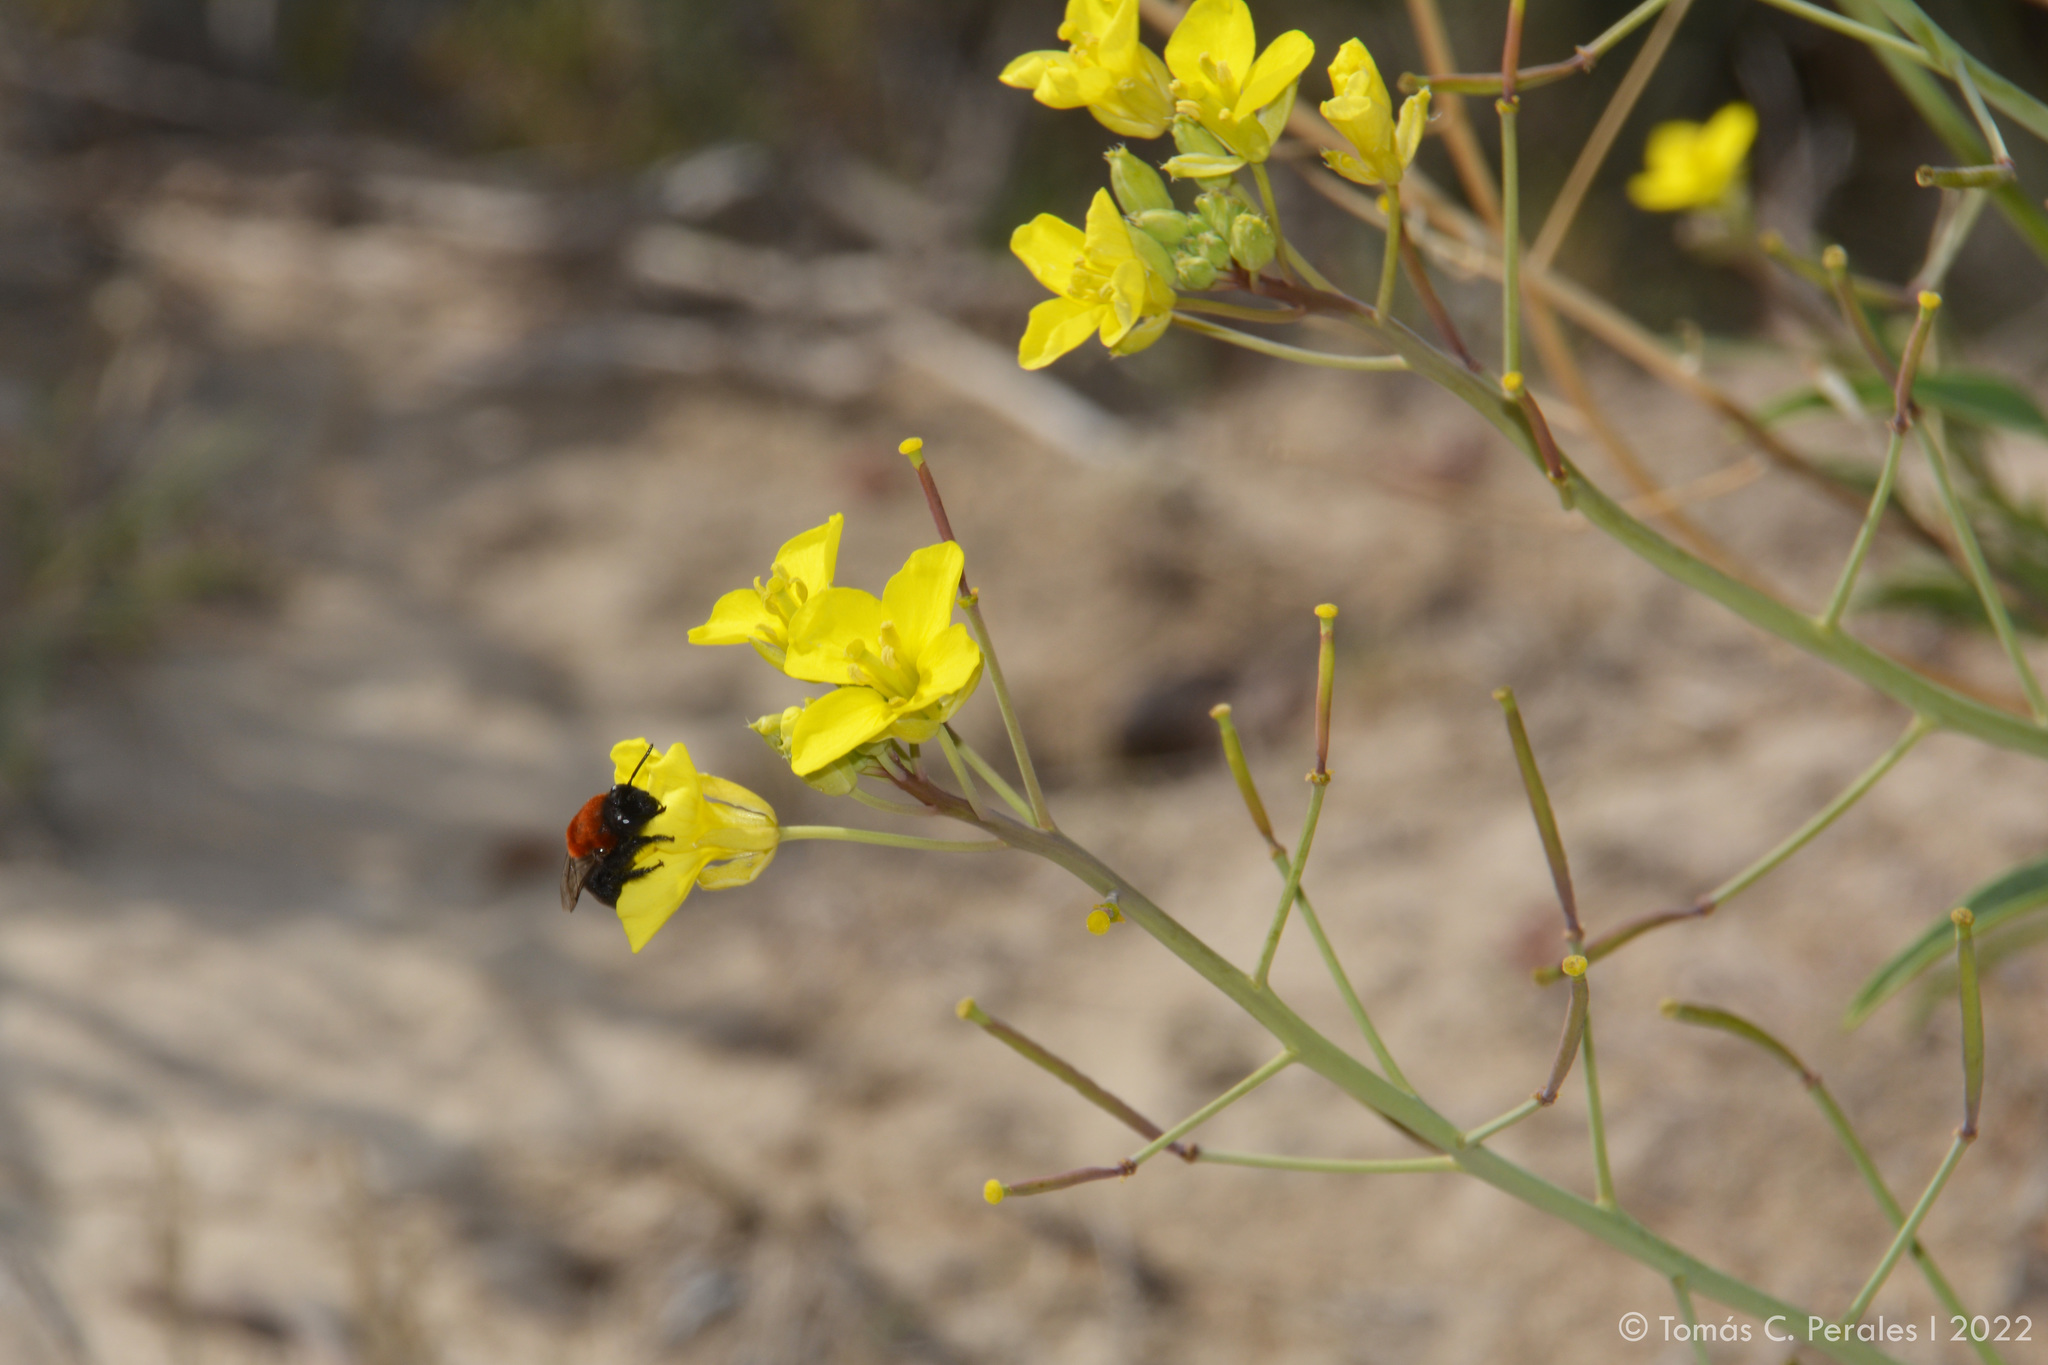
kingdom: Plantae
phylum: Tracheophyta
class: Magnoliopsida
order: Brassicales
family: Brassicaceae
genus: Diplotaxis
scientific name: Diplotaxis tenuifolia
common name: Perennial wall-rocket
